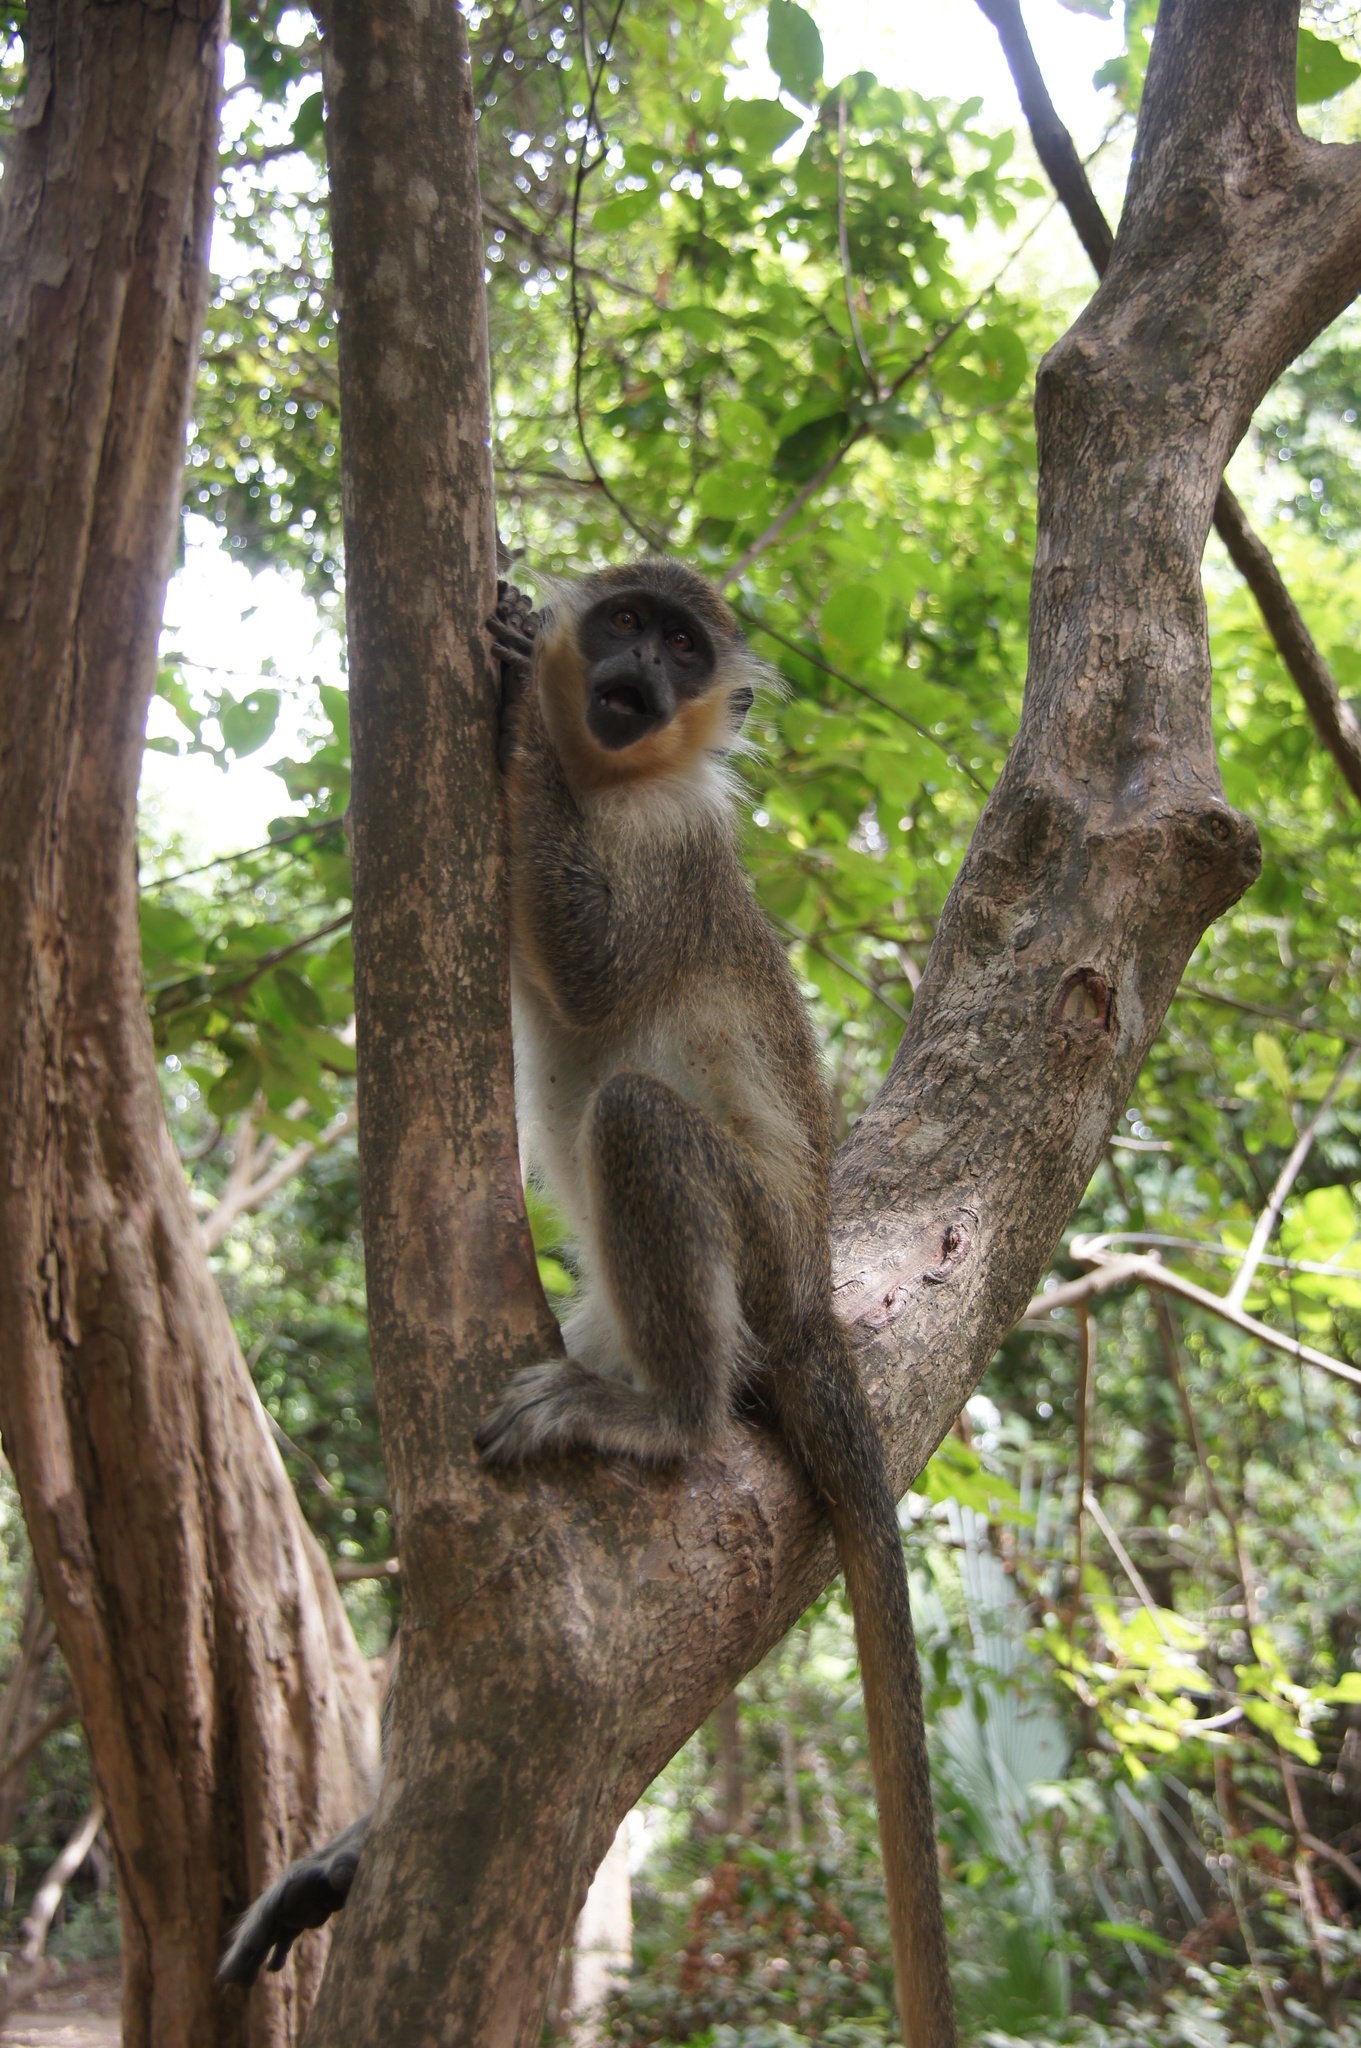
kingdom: Animalia
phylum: Chordata
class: Mammalia
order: Primates
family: Cercopithecidae
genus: Chlorocebus
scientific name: Chlorocebus sabaeus
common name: Green monkey
